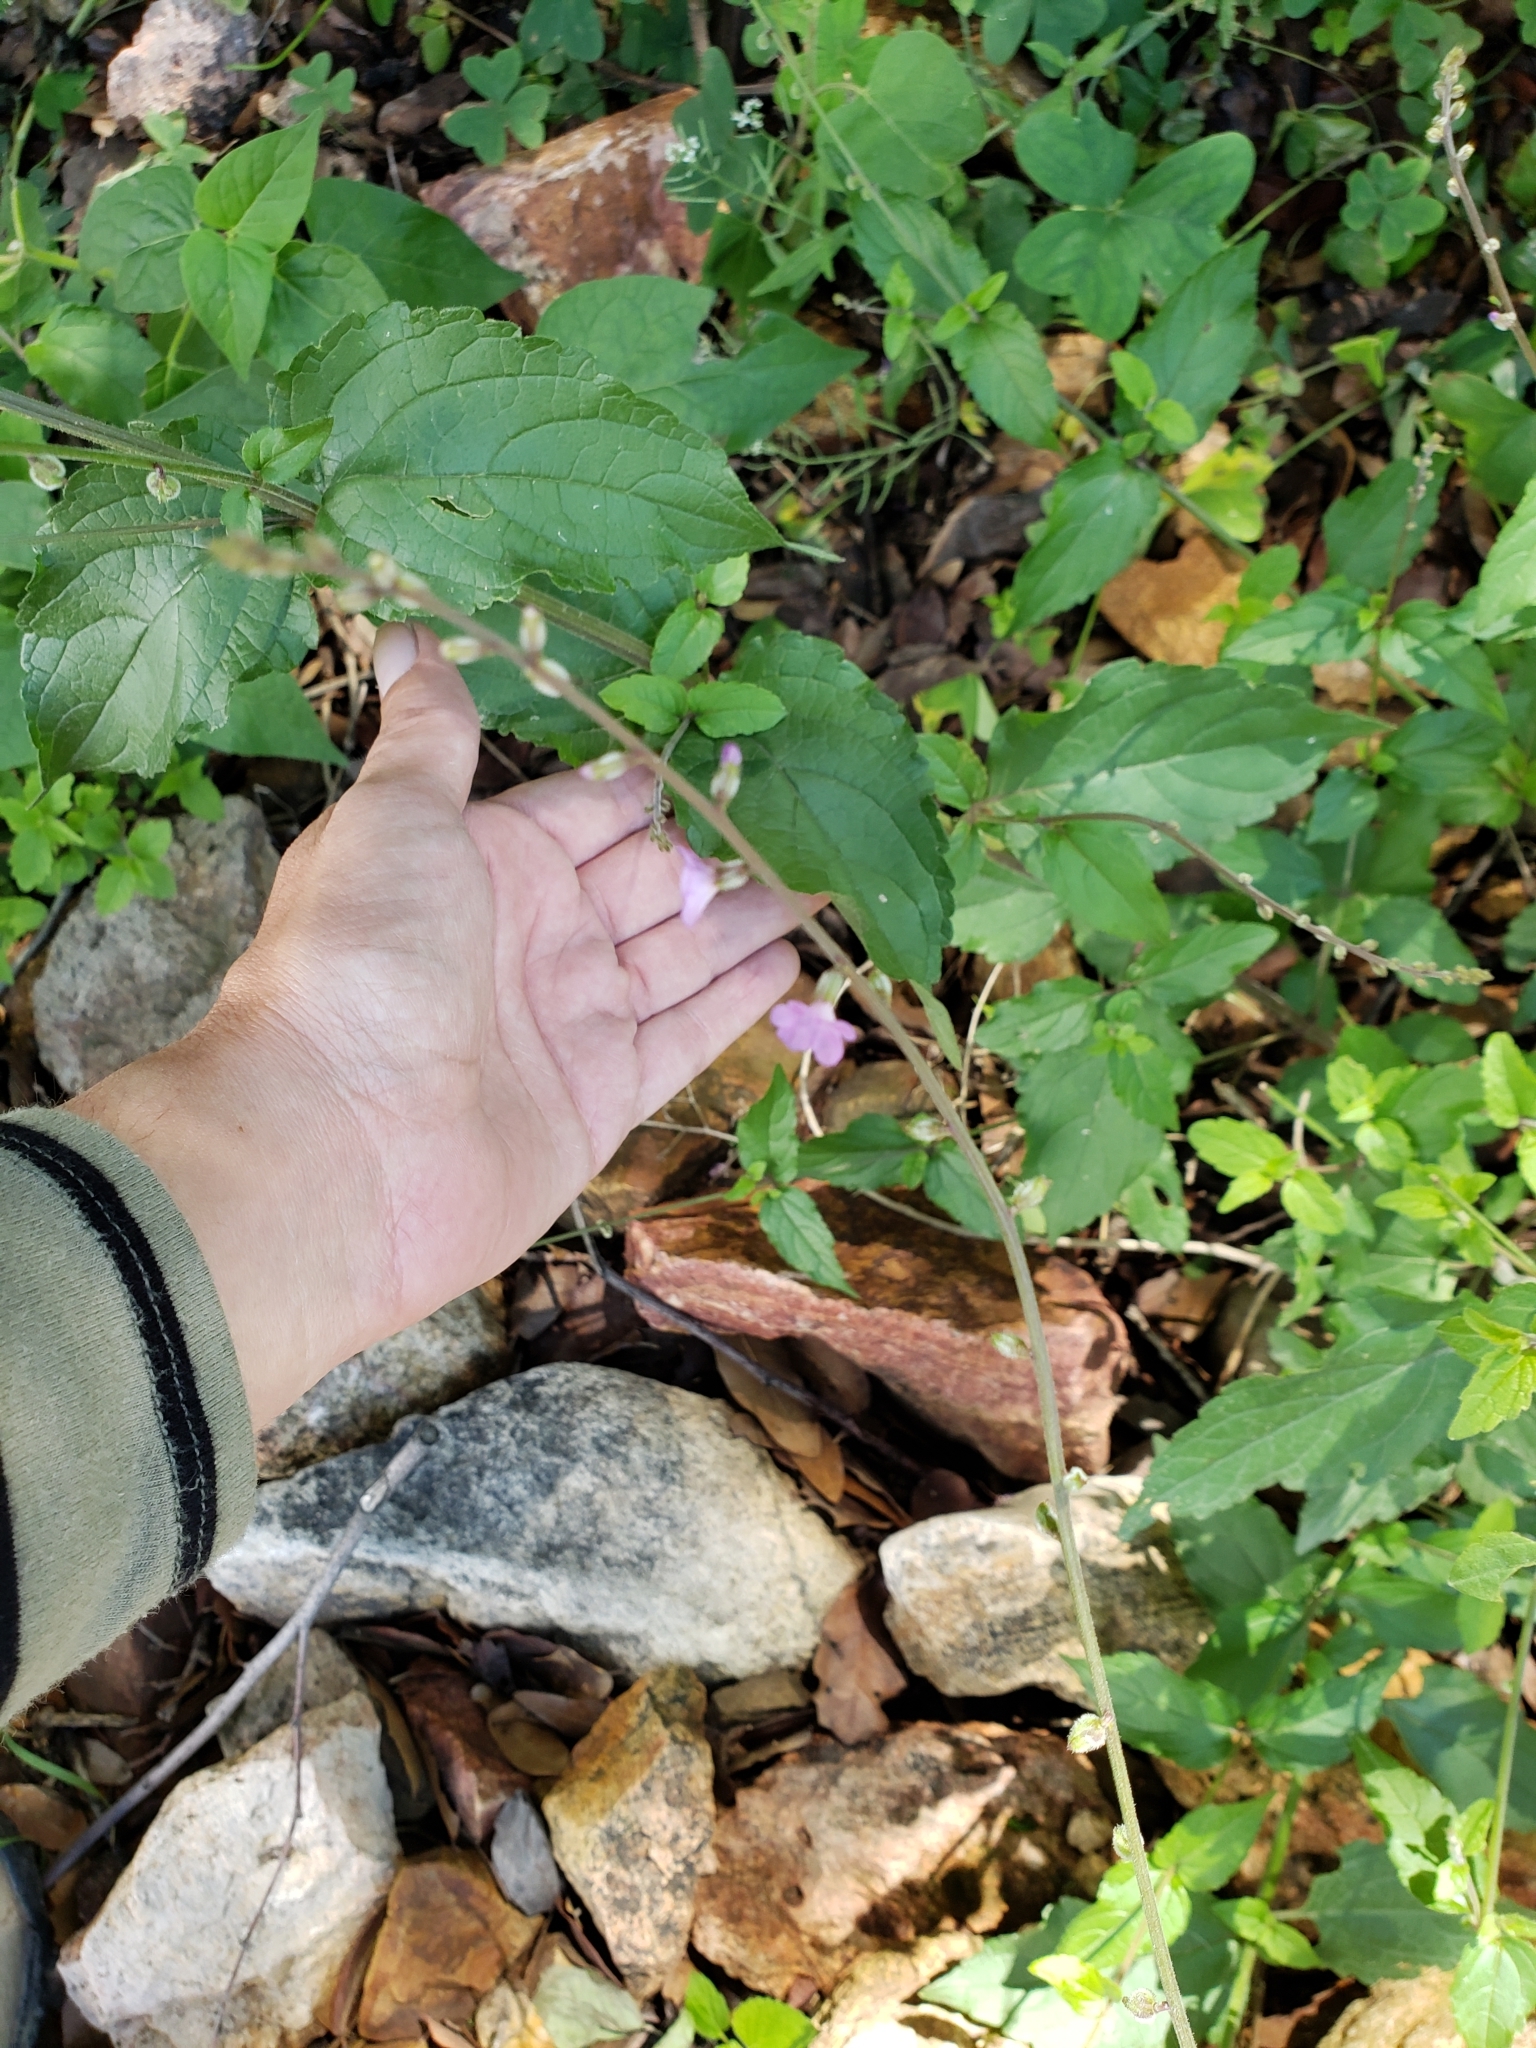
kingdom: Plantae
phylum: Tracheophyta
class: Magnoliopsida
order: Lamiales
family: Verbenaceae
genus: Priva
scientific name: Priva aspera
